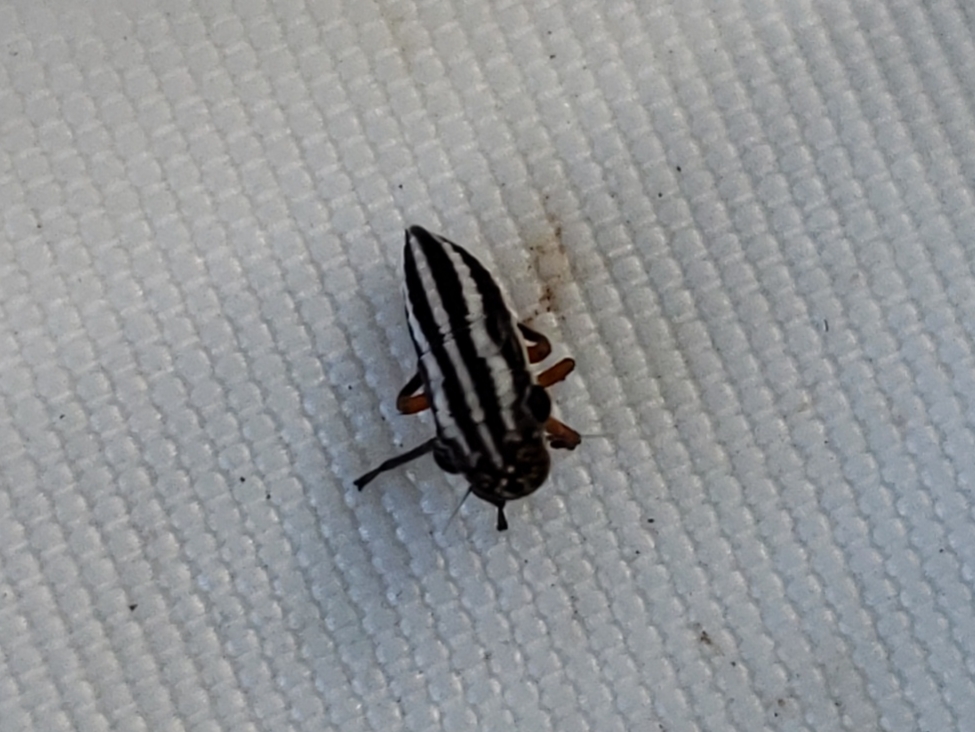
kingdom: Animalia
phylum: Arthropoda
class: Insecta
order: Hemiptera
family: Cicadellidae
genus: Cuerna
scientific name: Cuerna costalis
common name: Lateral-lined sharpshooter
